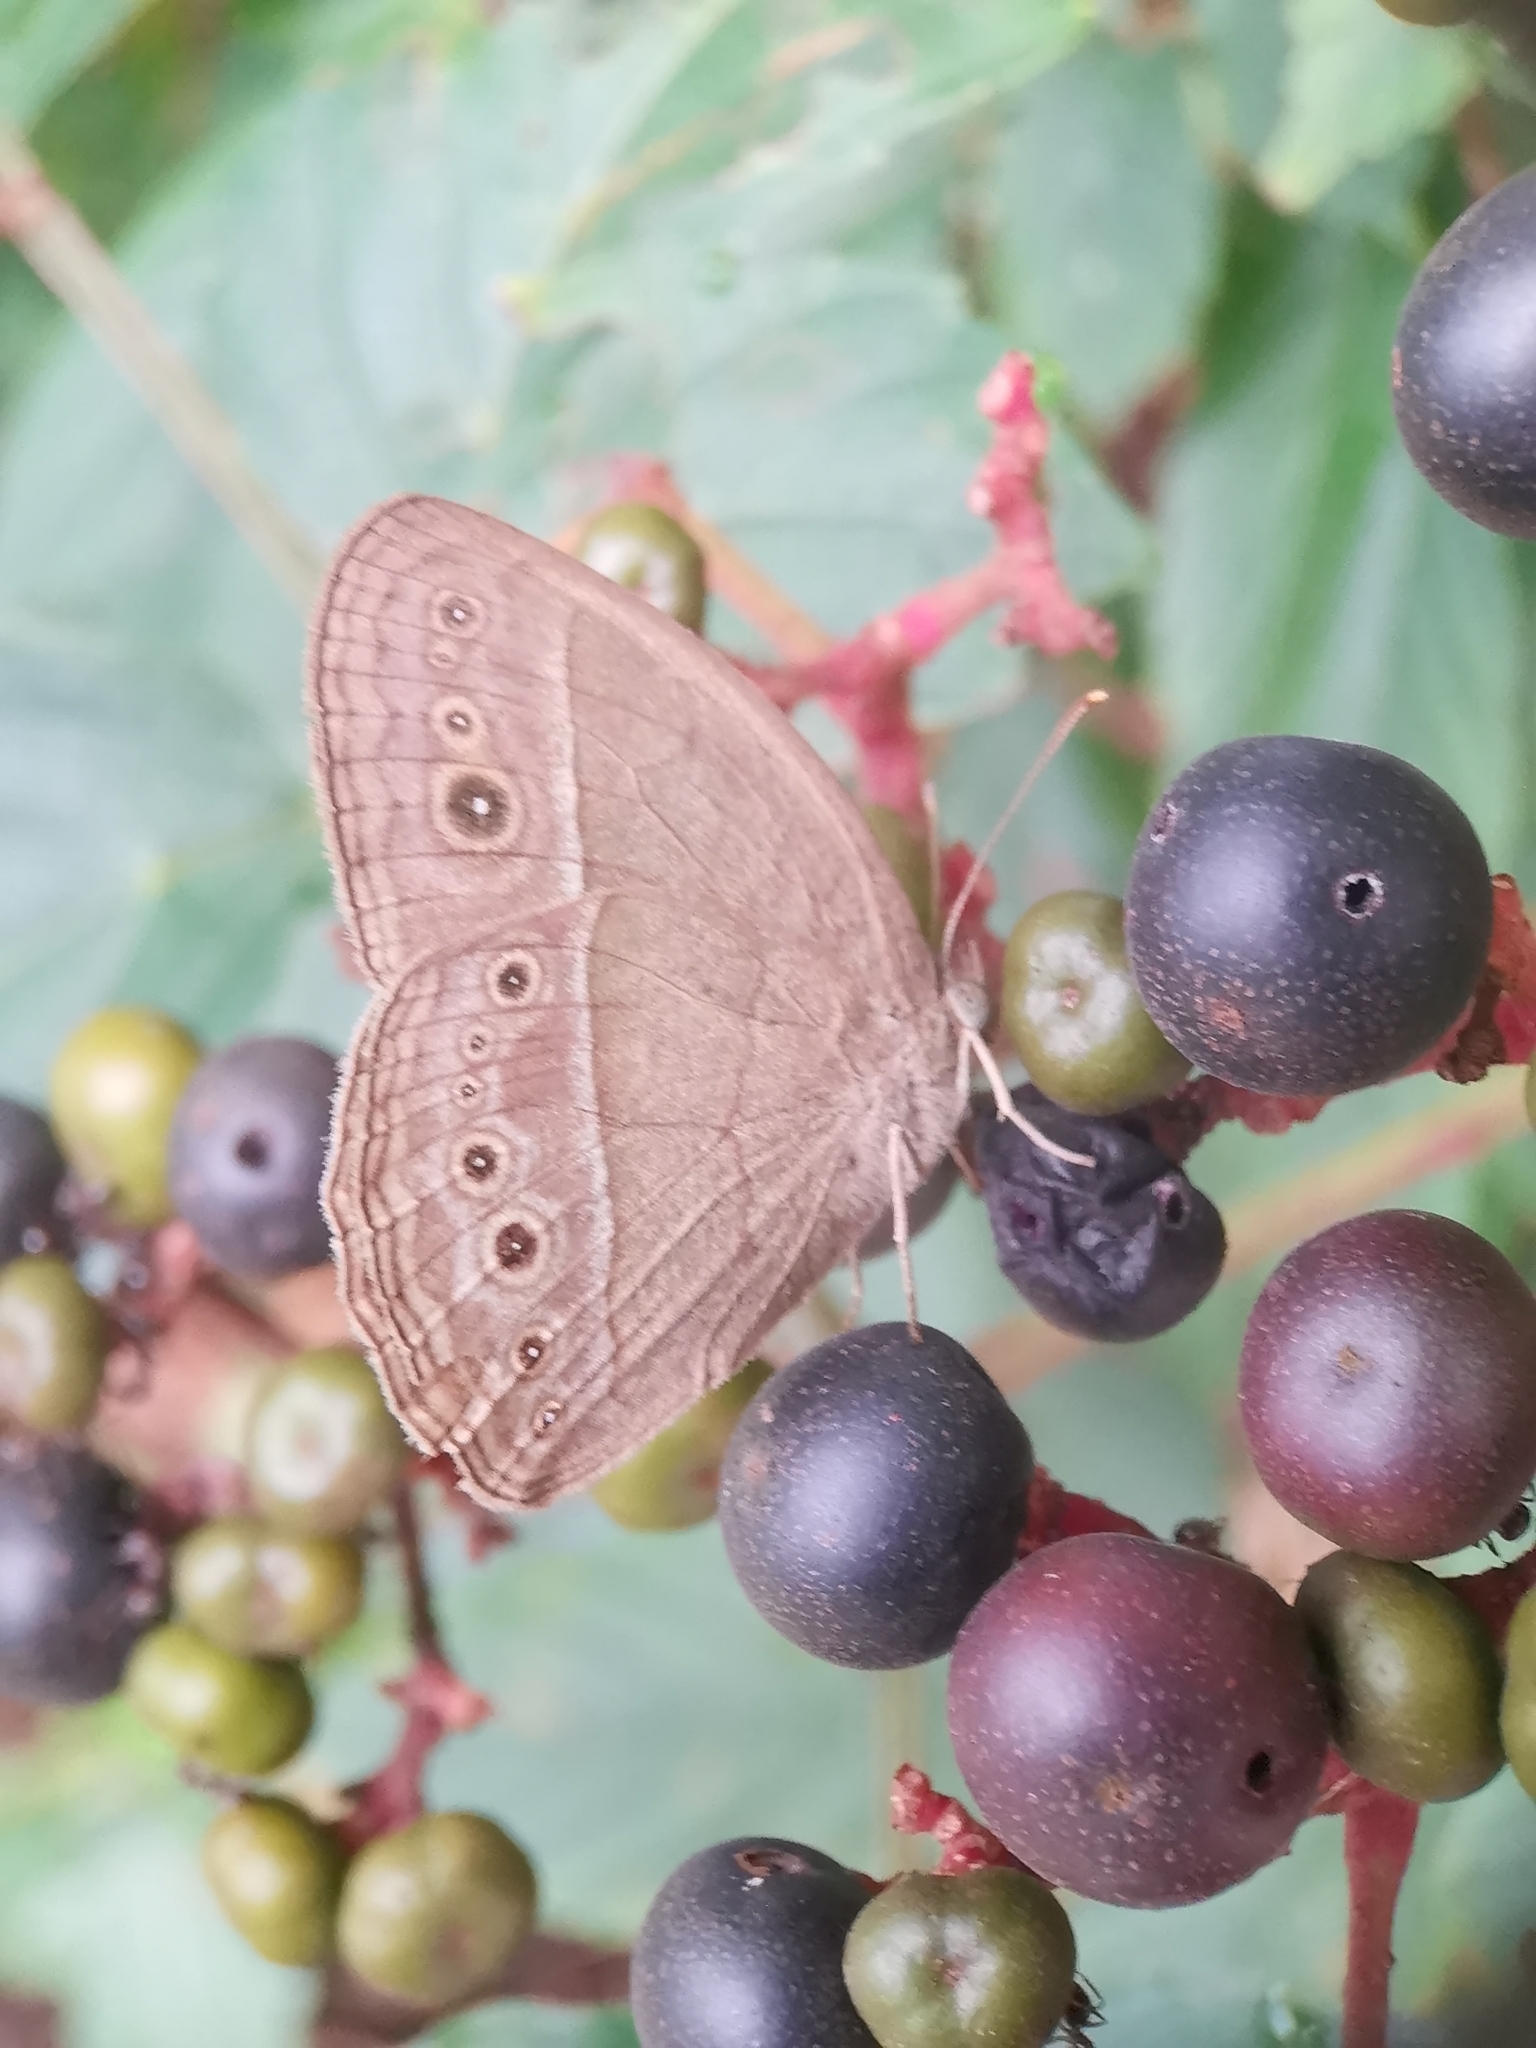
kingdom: Animalia
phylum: Arthropoda
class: Insecta
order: Lepidoptera
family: Nymphalidae
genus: Mycalesis
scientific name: Mycalesis visala
